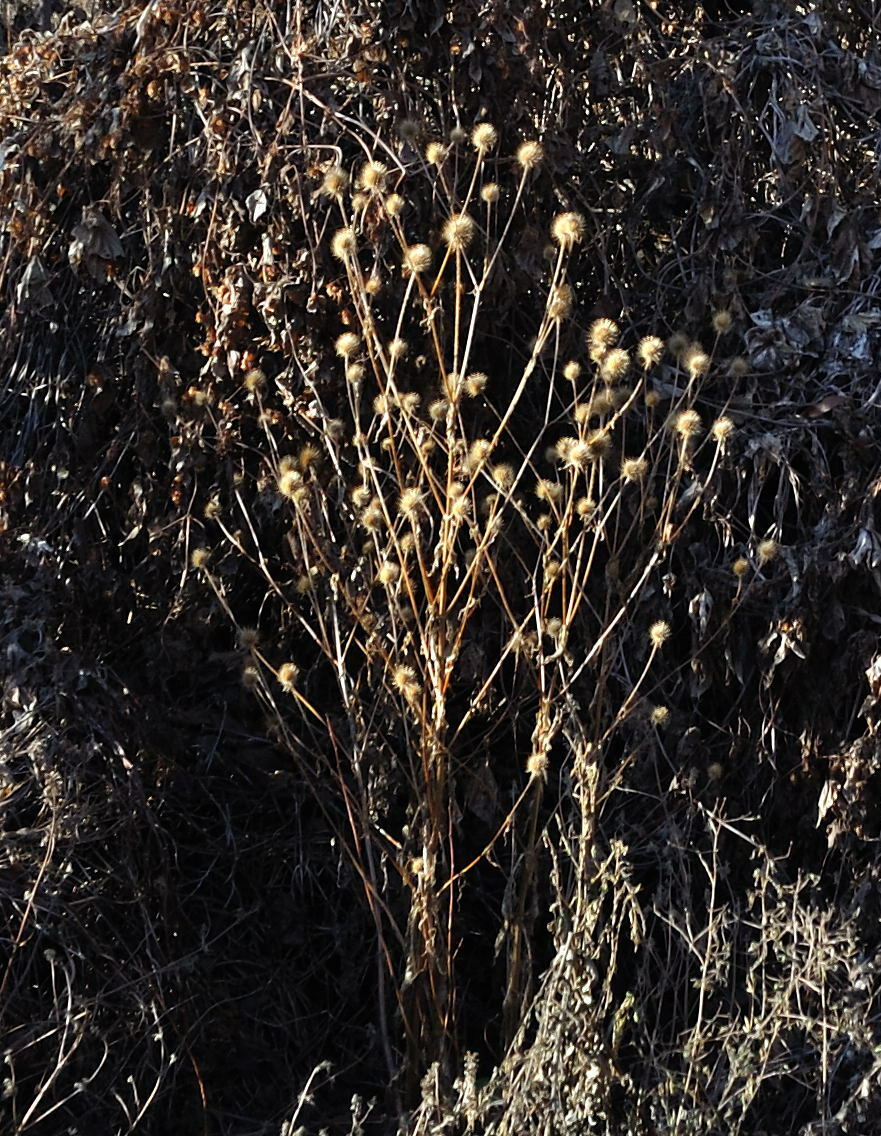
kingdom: Plantae
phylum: Tracheophyta
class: Magnoliopsida
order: Dipsacales
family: Caprifoliaceae
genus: Dipsacus
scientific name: Dipsacus strigosus
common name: Yellow-flowered teasel
